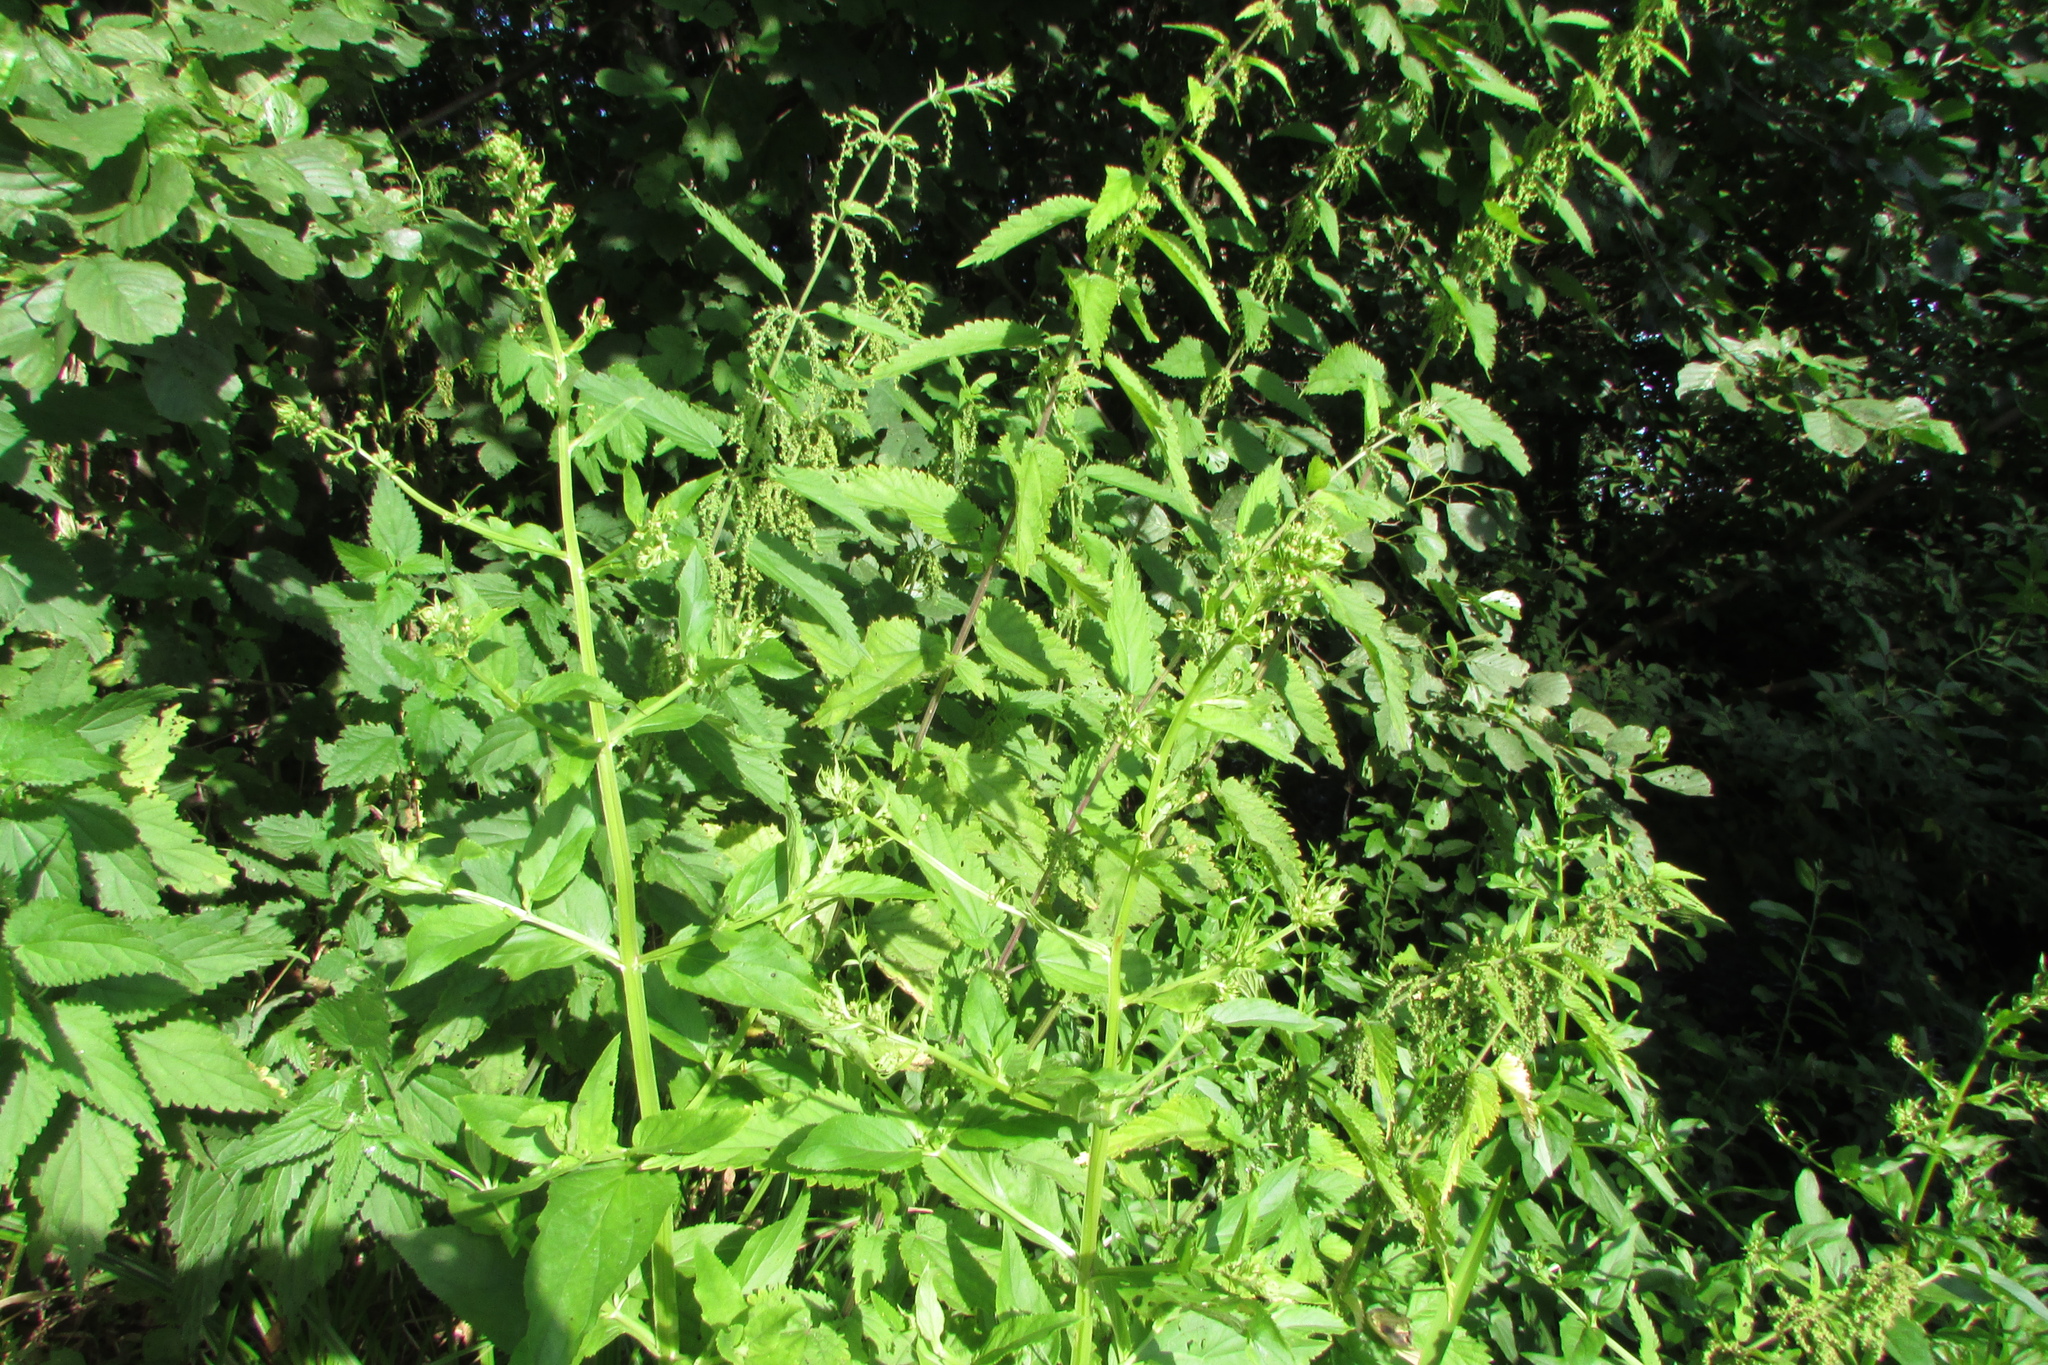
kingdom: Plantae
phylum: Tracheophyta
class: Magnoliopsida
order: Lamiales
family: Scrophulariaceae
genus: Scrophularia
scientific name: Scrophularia umbrosa
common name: Green figwort
